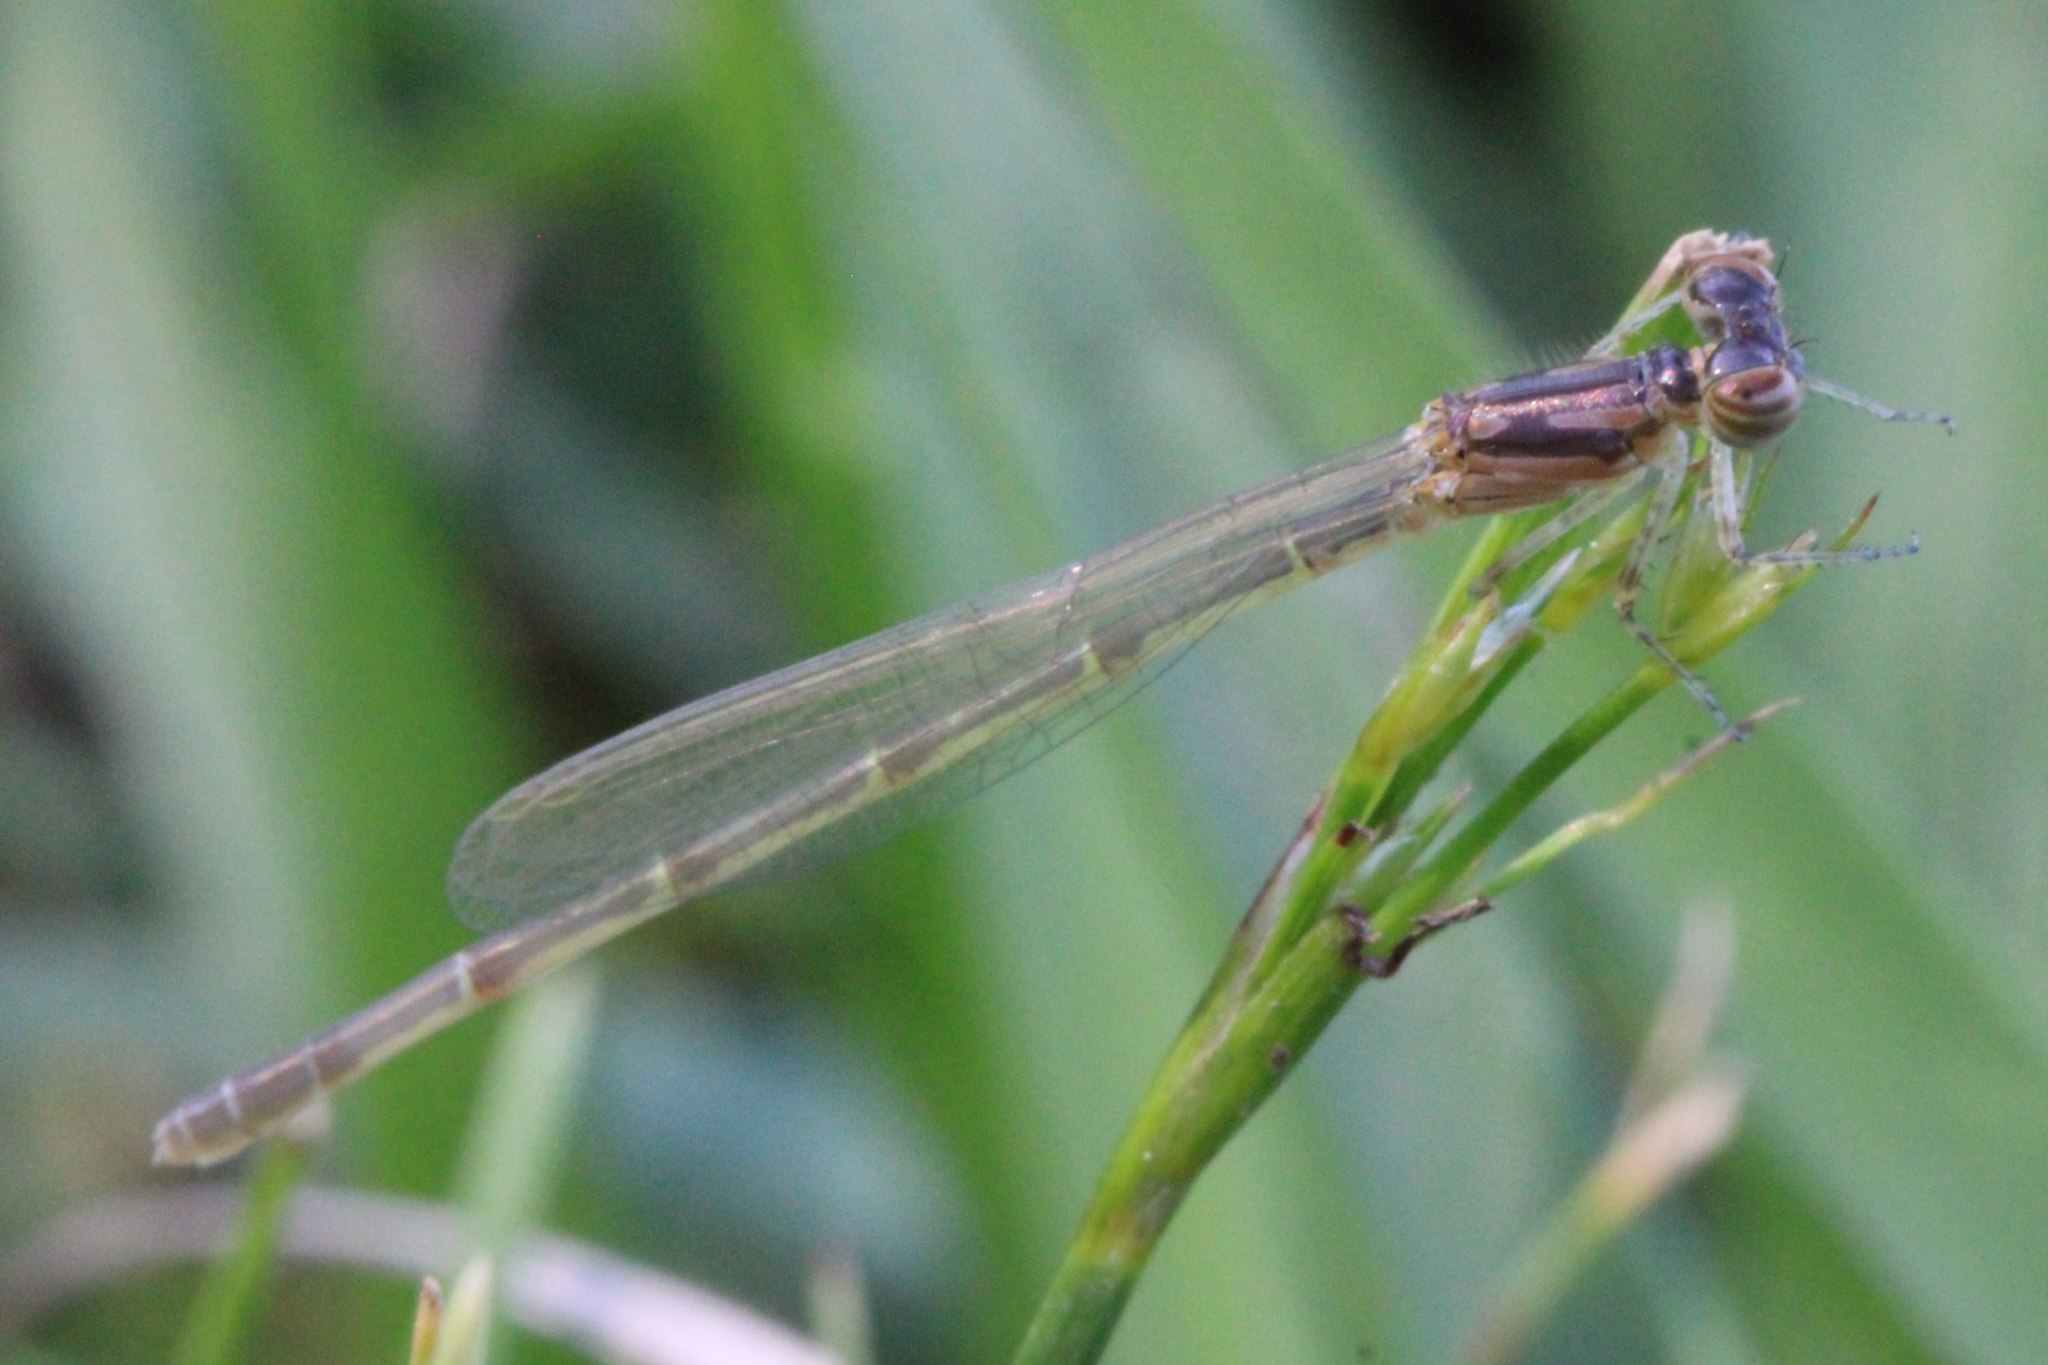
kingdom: Animalia
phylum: Arthropoda
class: Insecta
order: Odonata
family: Coenagrionidae
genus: Ischnura
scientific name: Ischnura posita
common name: Fragile forktail
